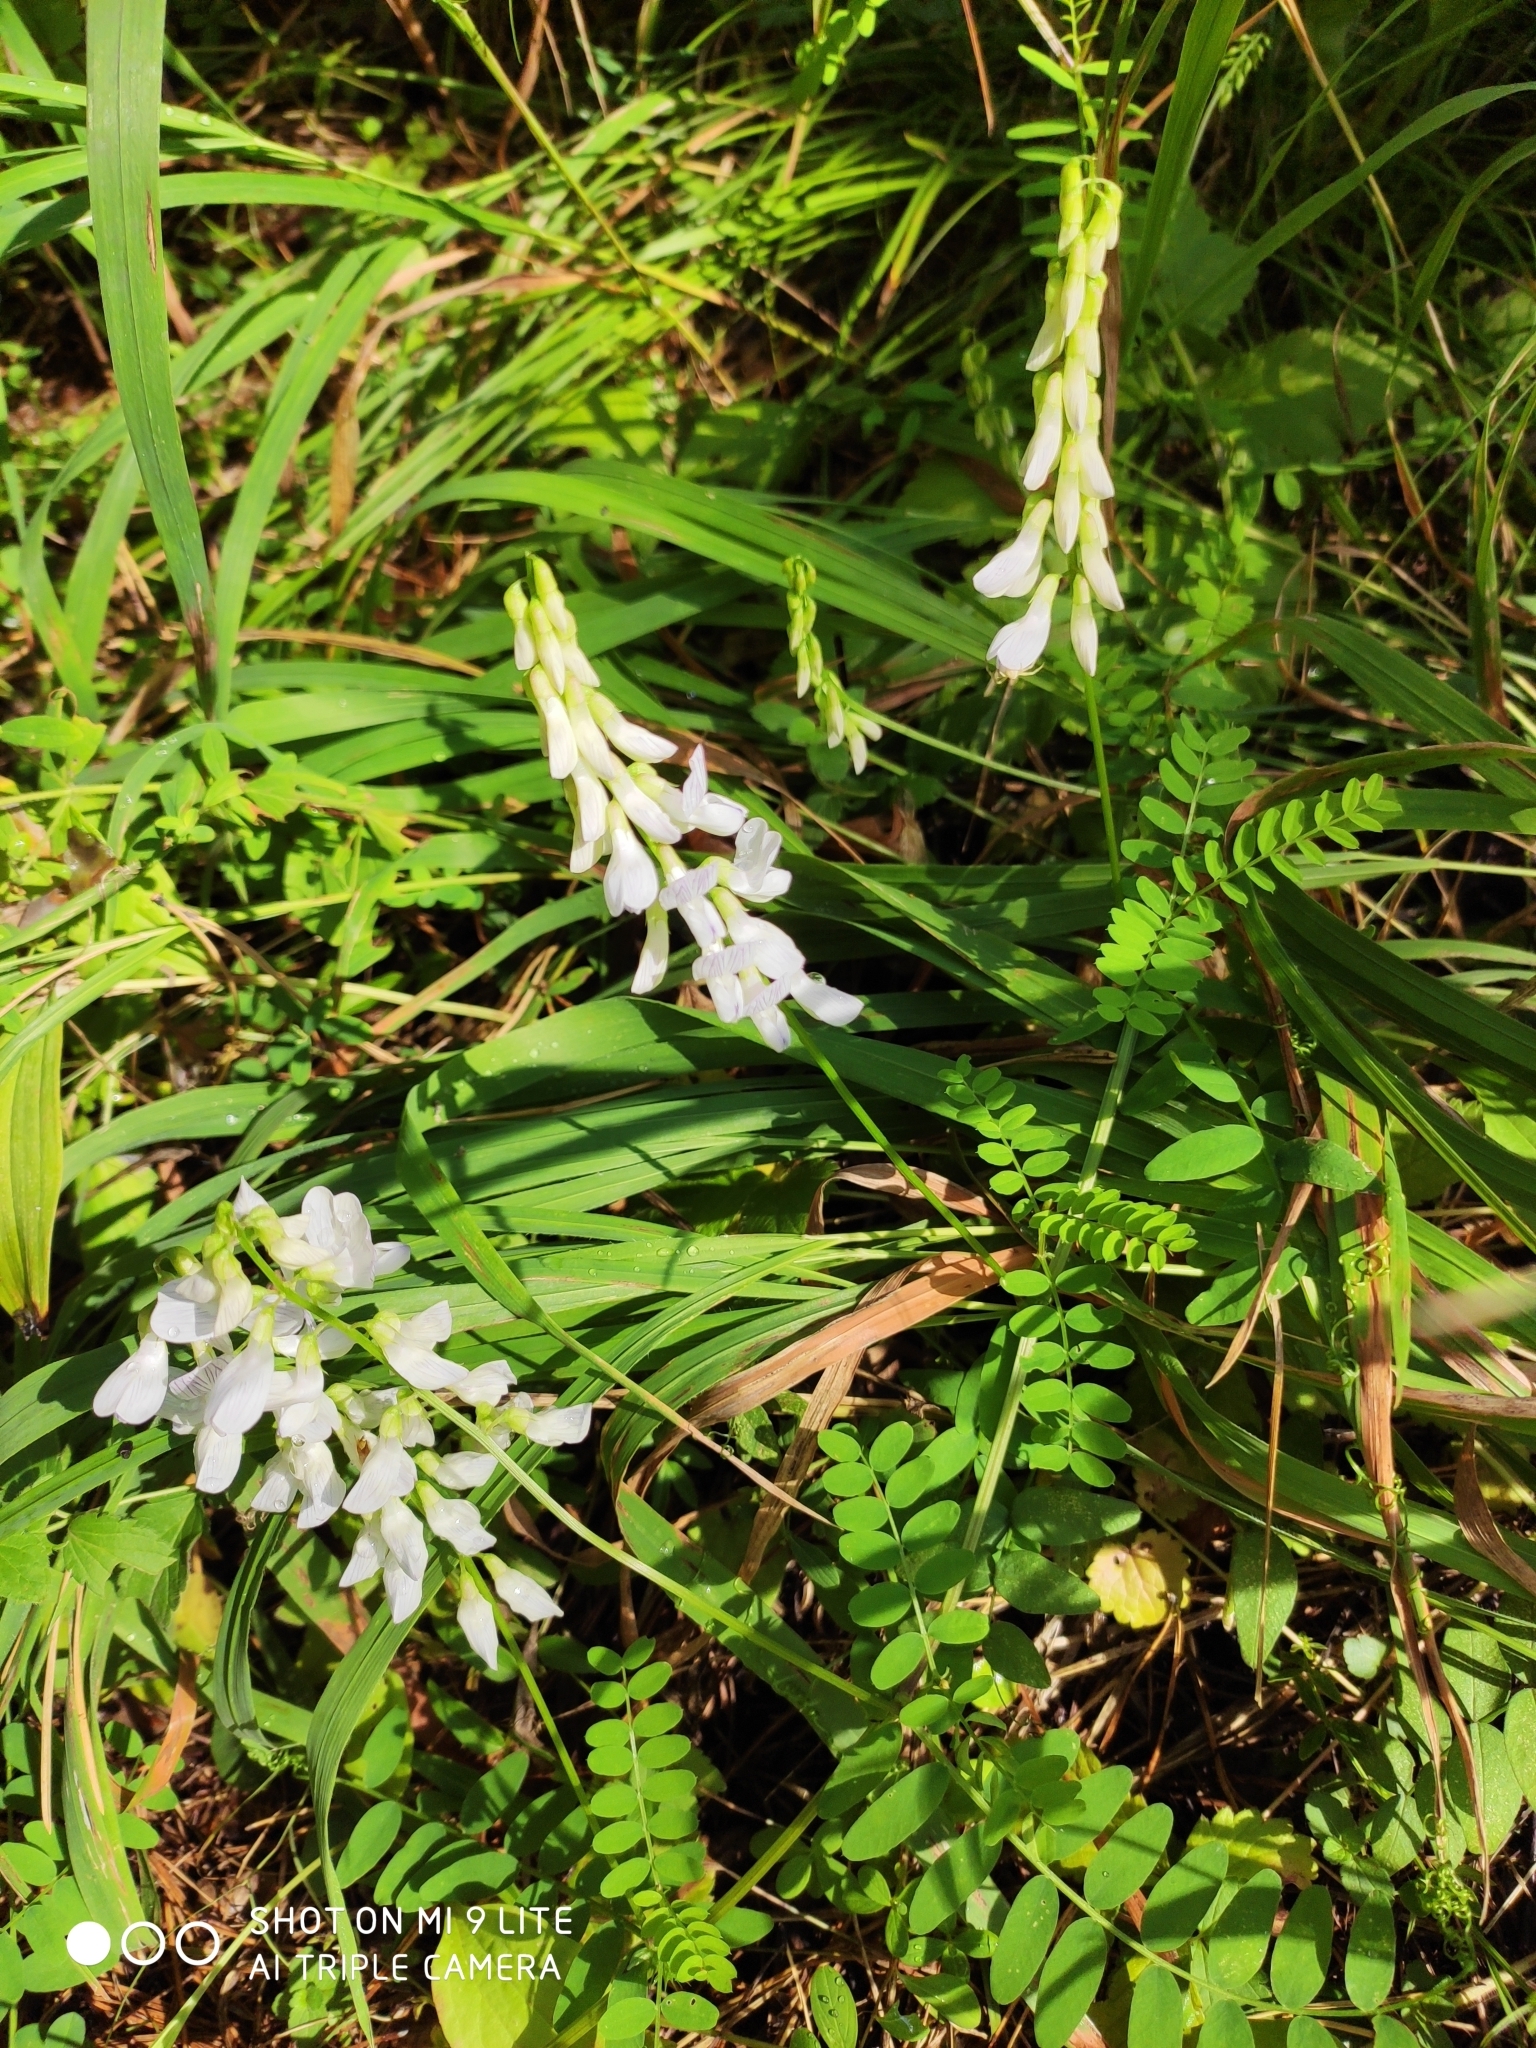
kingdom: Plantae
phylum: Tracheophyta
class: Magnoliopsida
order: Fabales
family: Fabaceae
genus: Vicia
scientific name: Vicia sylvatica
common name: Wood vetch
